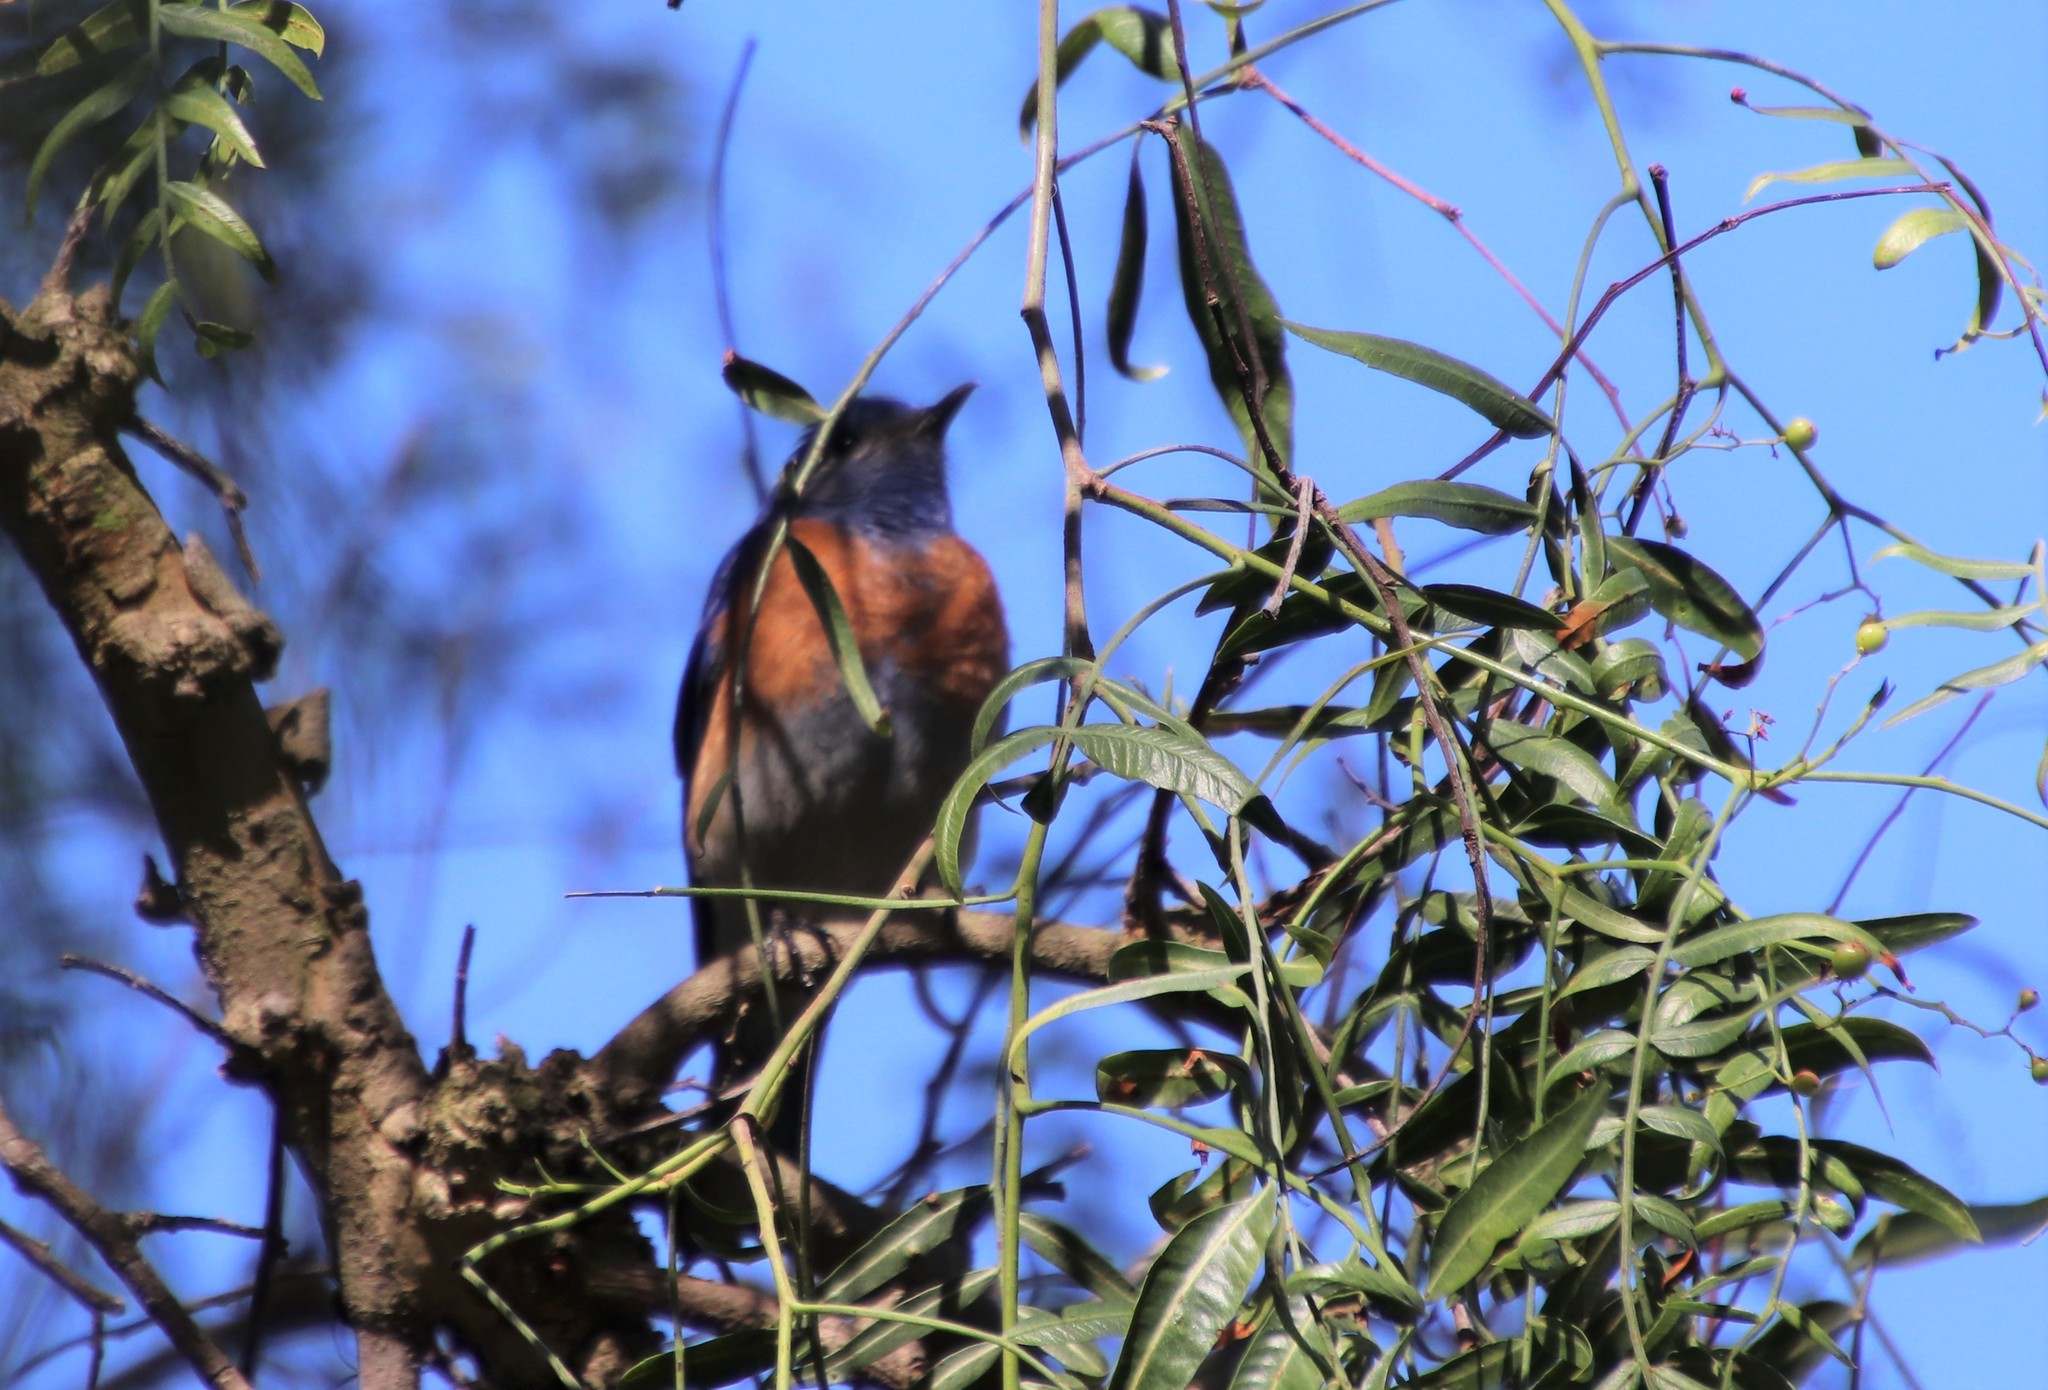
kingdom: Animalia
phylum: Chordata
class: Aves
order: Passeriformes
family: Turdidae
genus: Sialia
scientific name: Sialia mexicana
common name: Western bluebird
